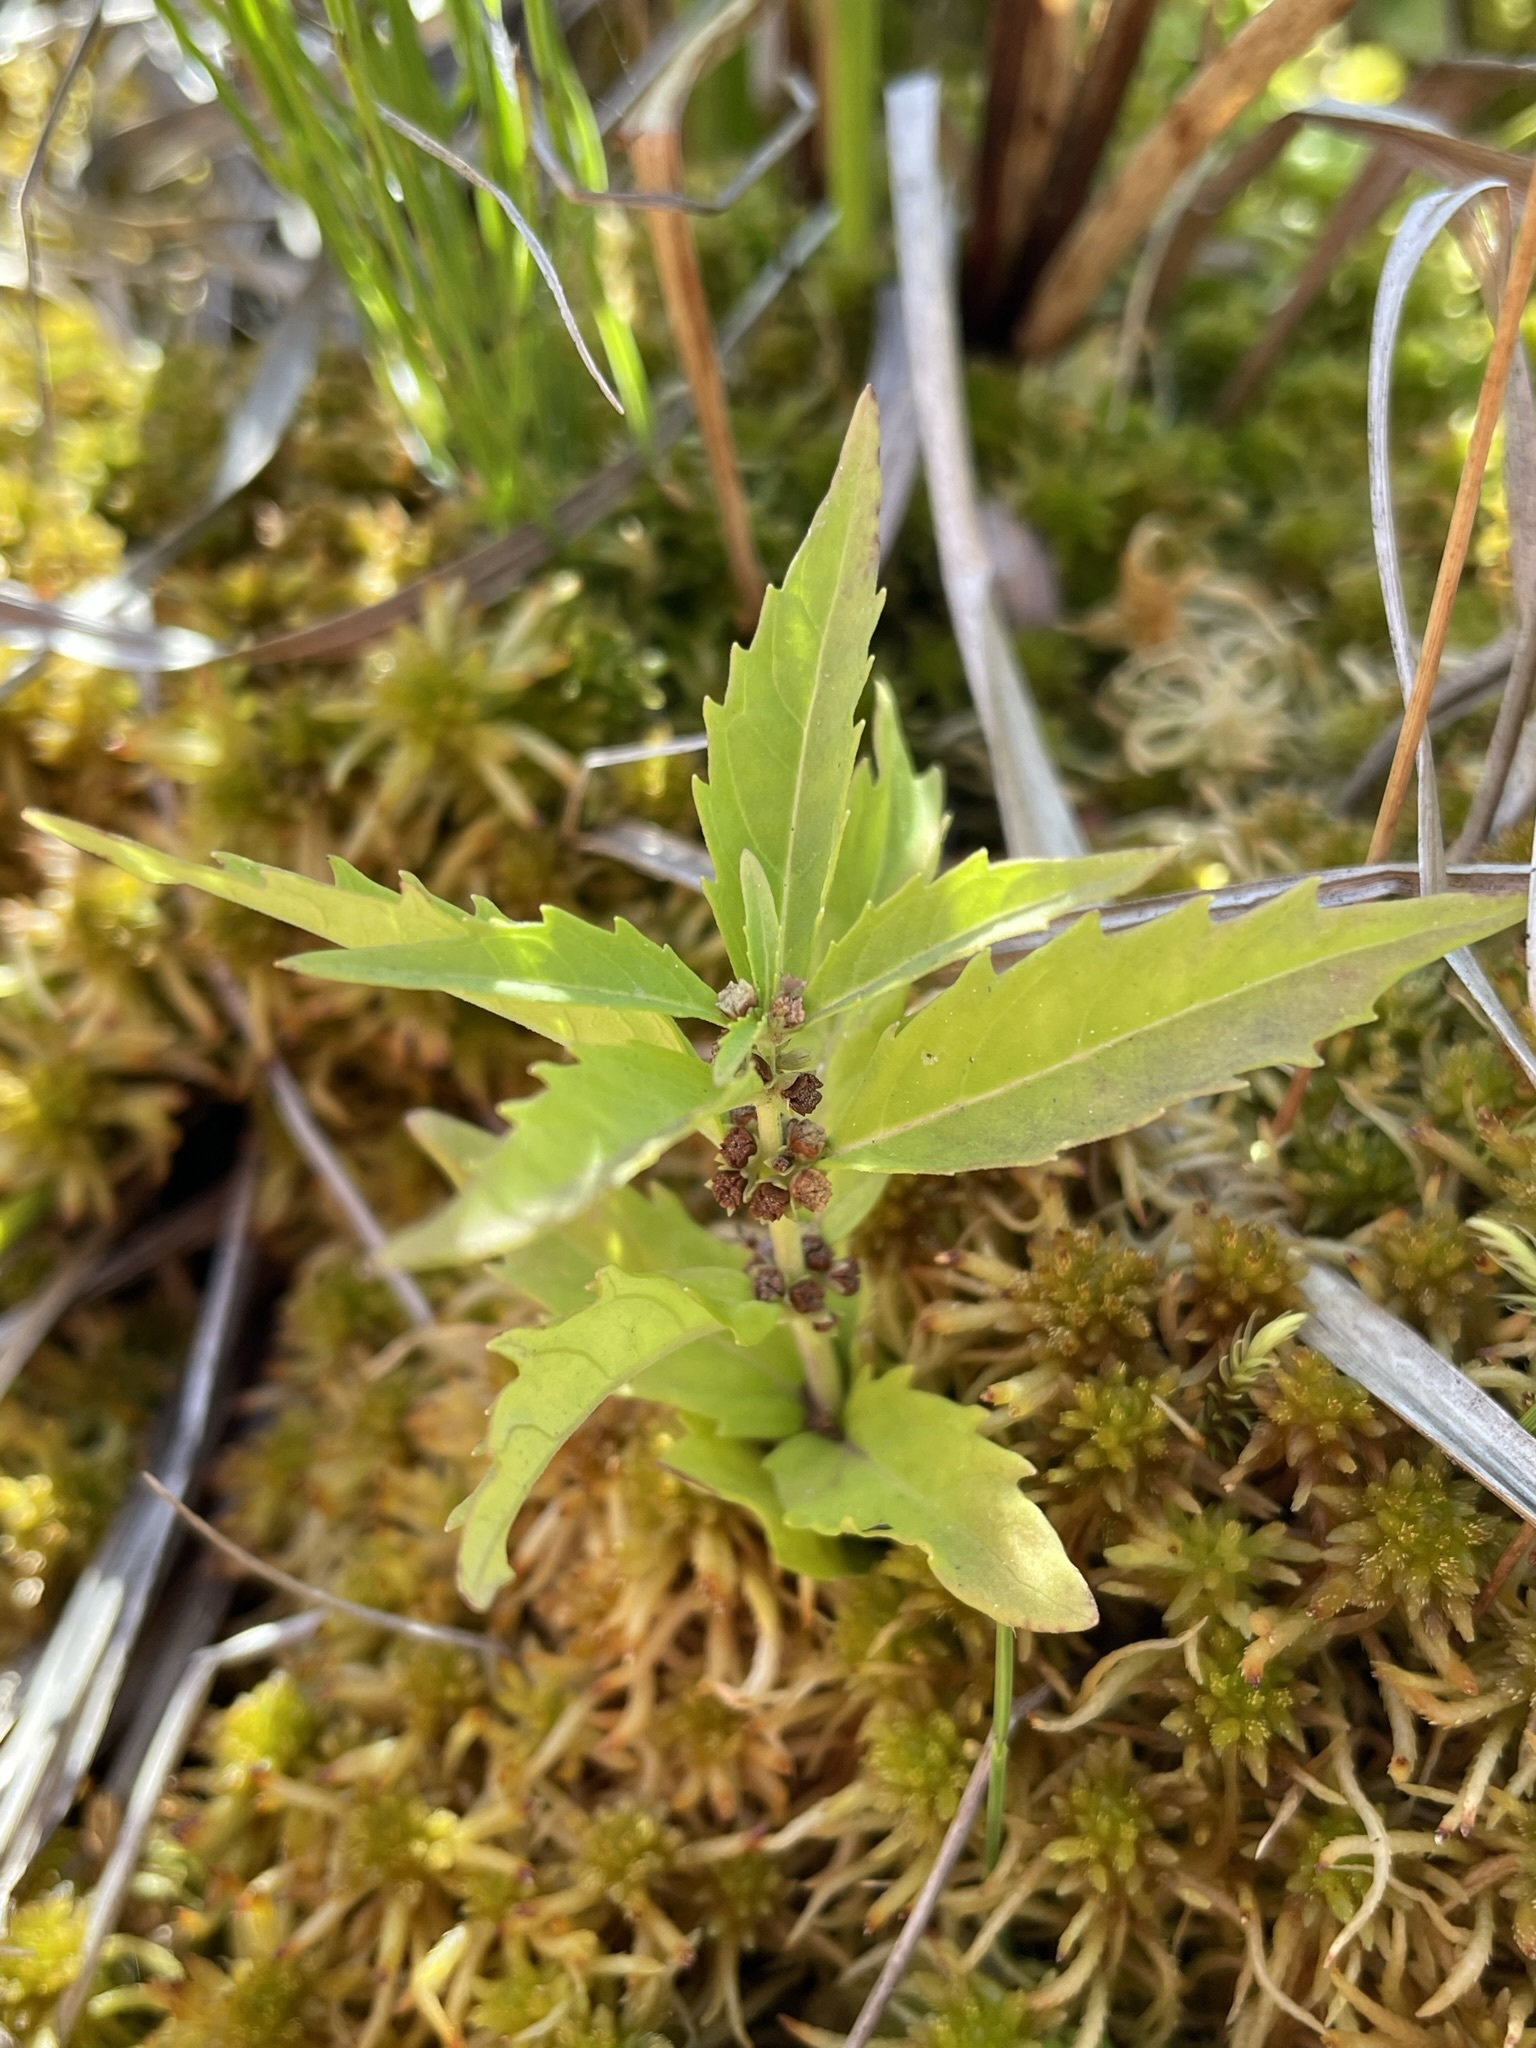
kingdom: Plantae
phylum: Tracheophyta
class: Magnoliopsida
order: Lamiales
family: Lamiaceae
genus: Lycopus
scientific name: Lycopus uniflorus
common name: Northern bugleweed
